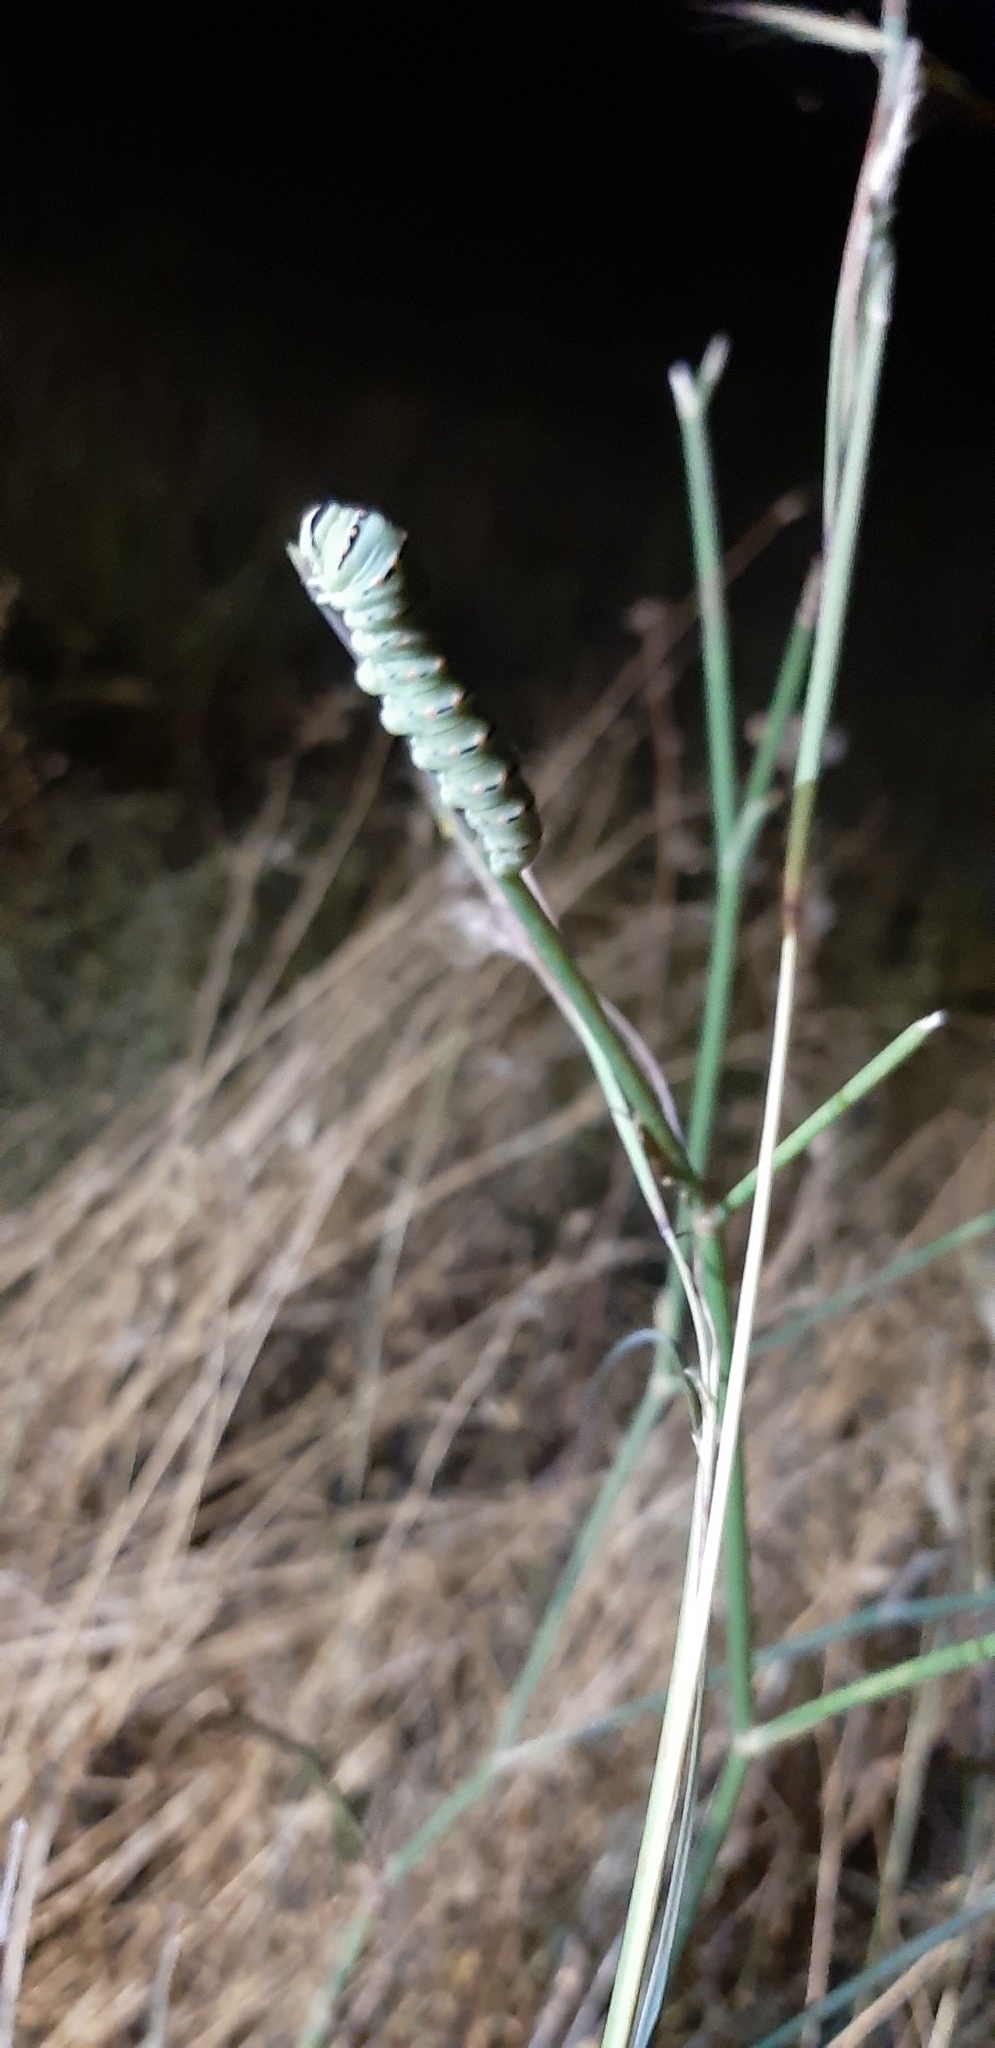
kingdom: Animalia
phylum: Arthropoda
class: Insecta
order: Lepidoptera
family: Papilionidae
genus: Papilio
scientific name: Papilio machaon
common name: Swallowtail
